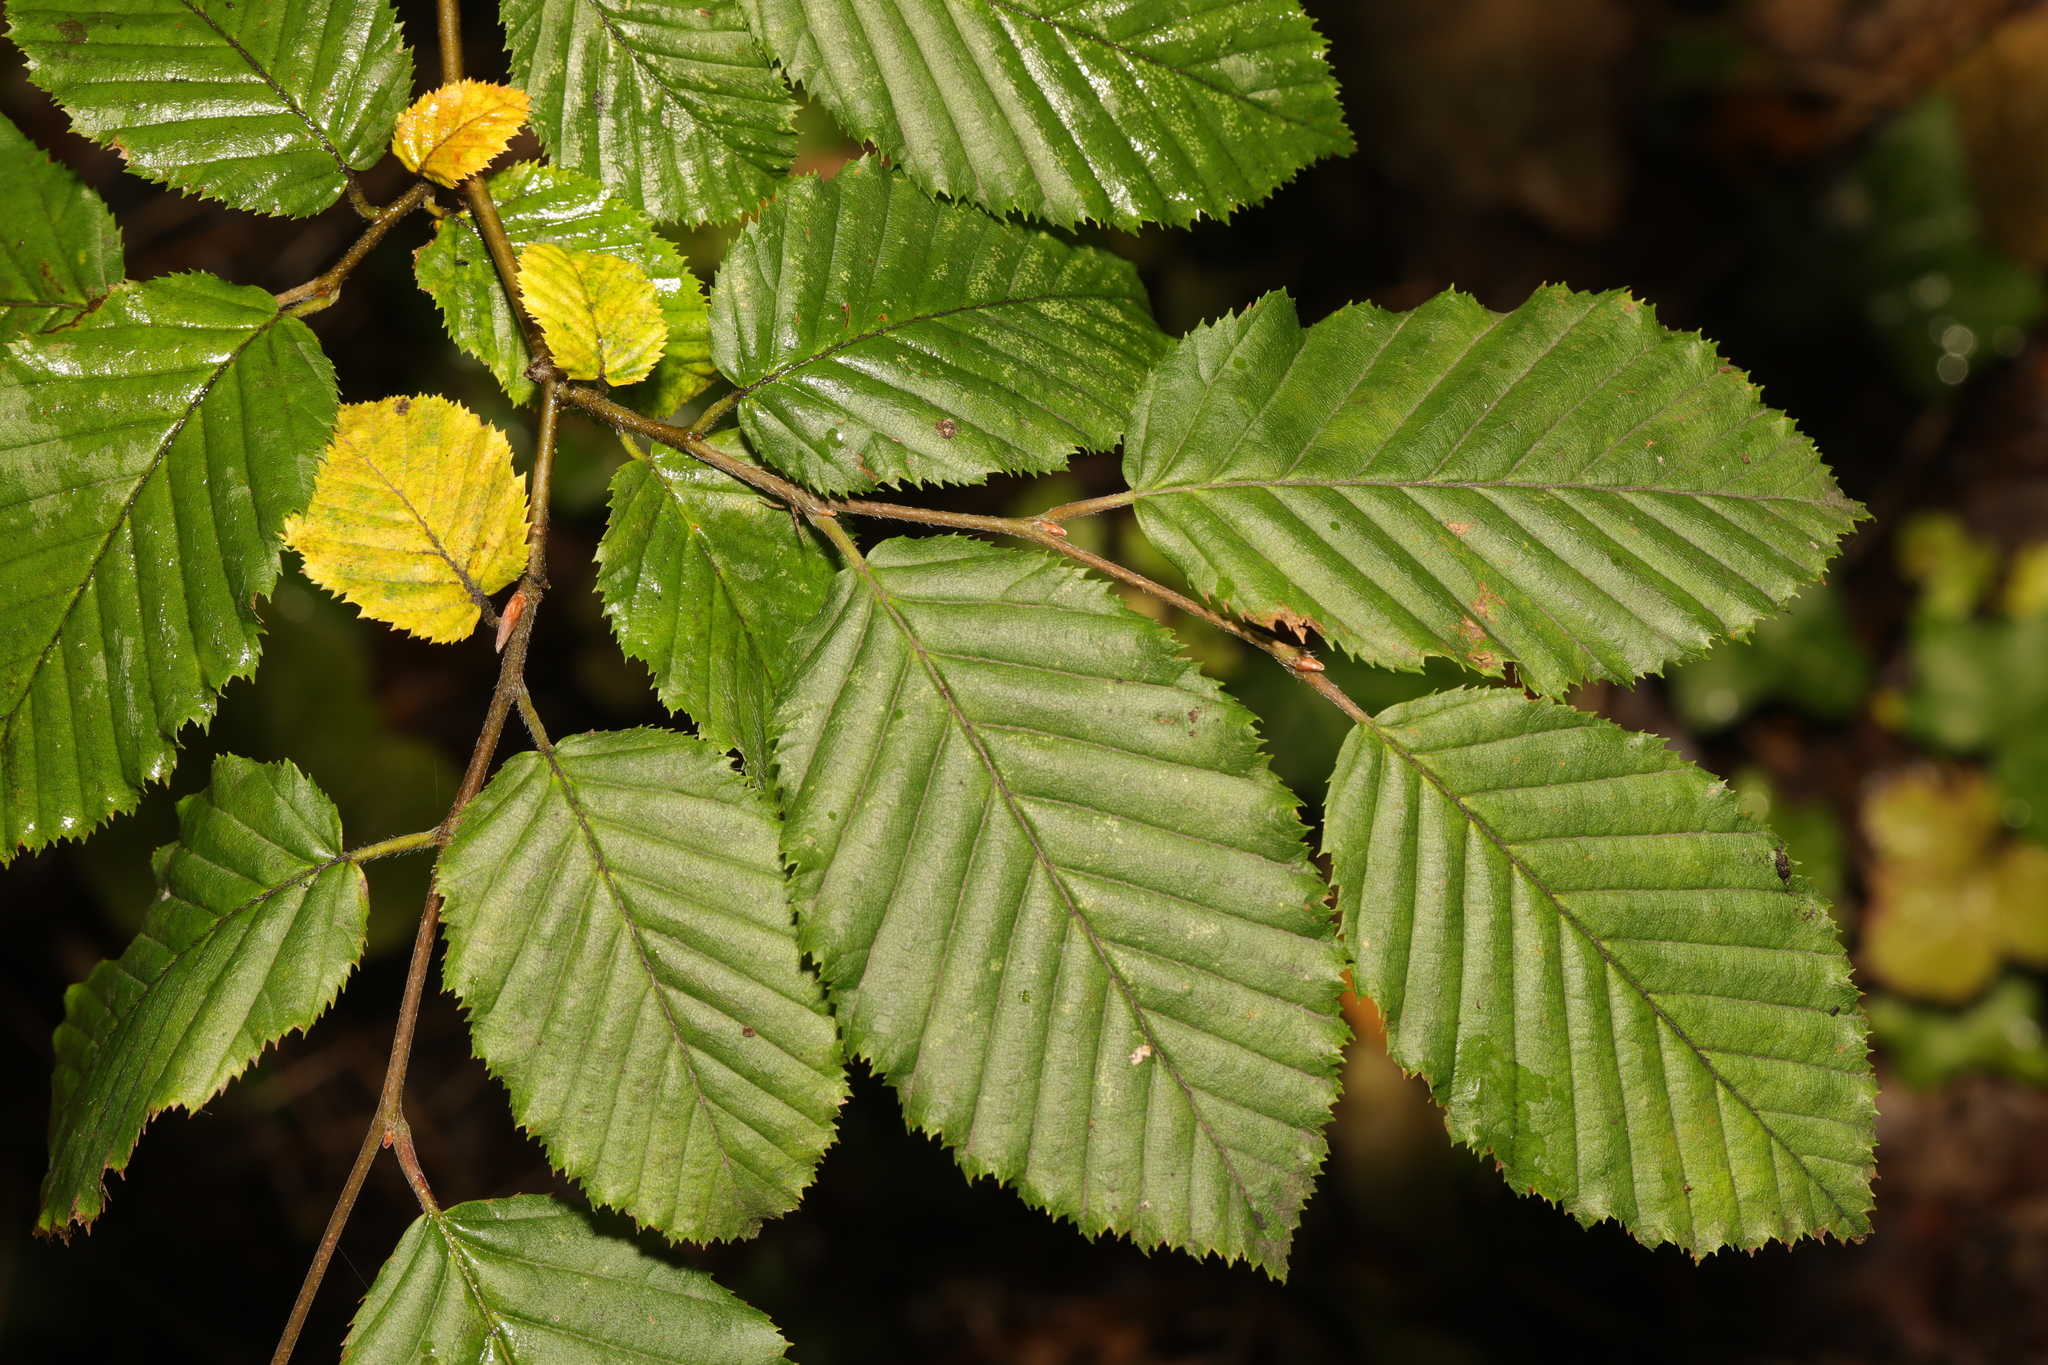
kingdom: Plantae
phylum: Tracheophyta
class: Magnoliopsida
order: Fagales
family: Betulaceae
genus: Carpinus
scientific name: Carpinus betulus
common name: Hornbeam
